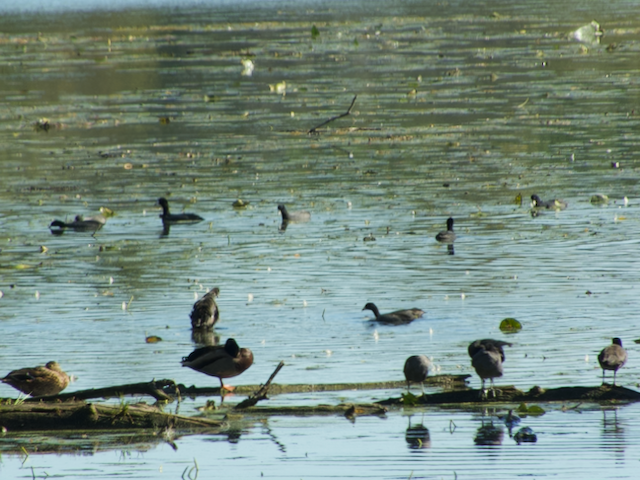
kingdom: Animalia
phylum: Chordata
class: Aves
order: Gruiformes
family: Rallidae
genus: Fulica
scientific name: Fulica americana
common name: American coot
